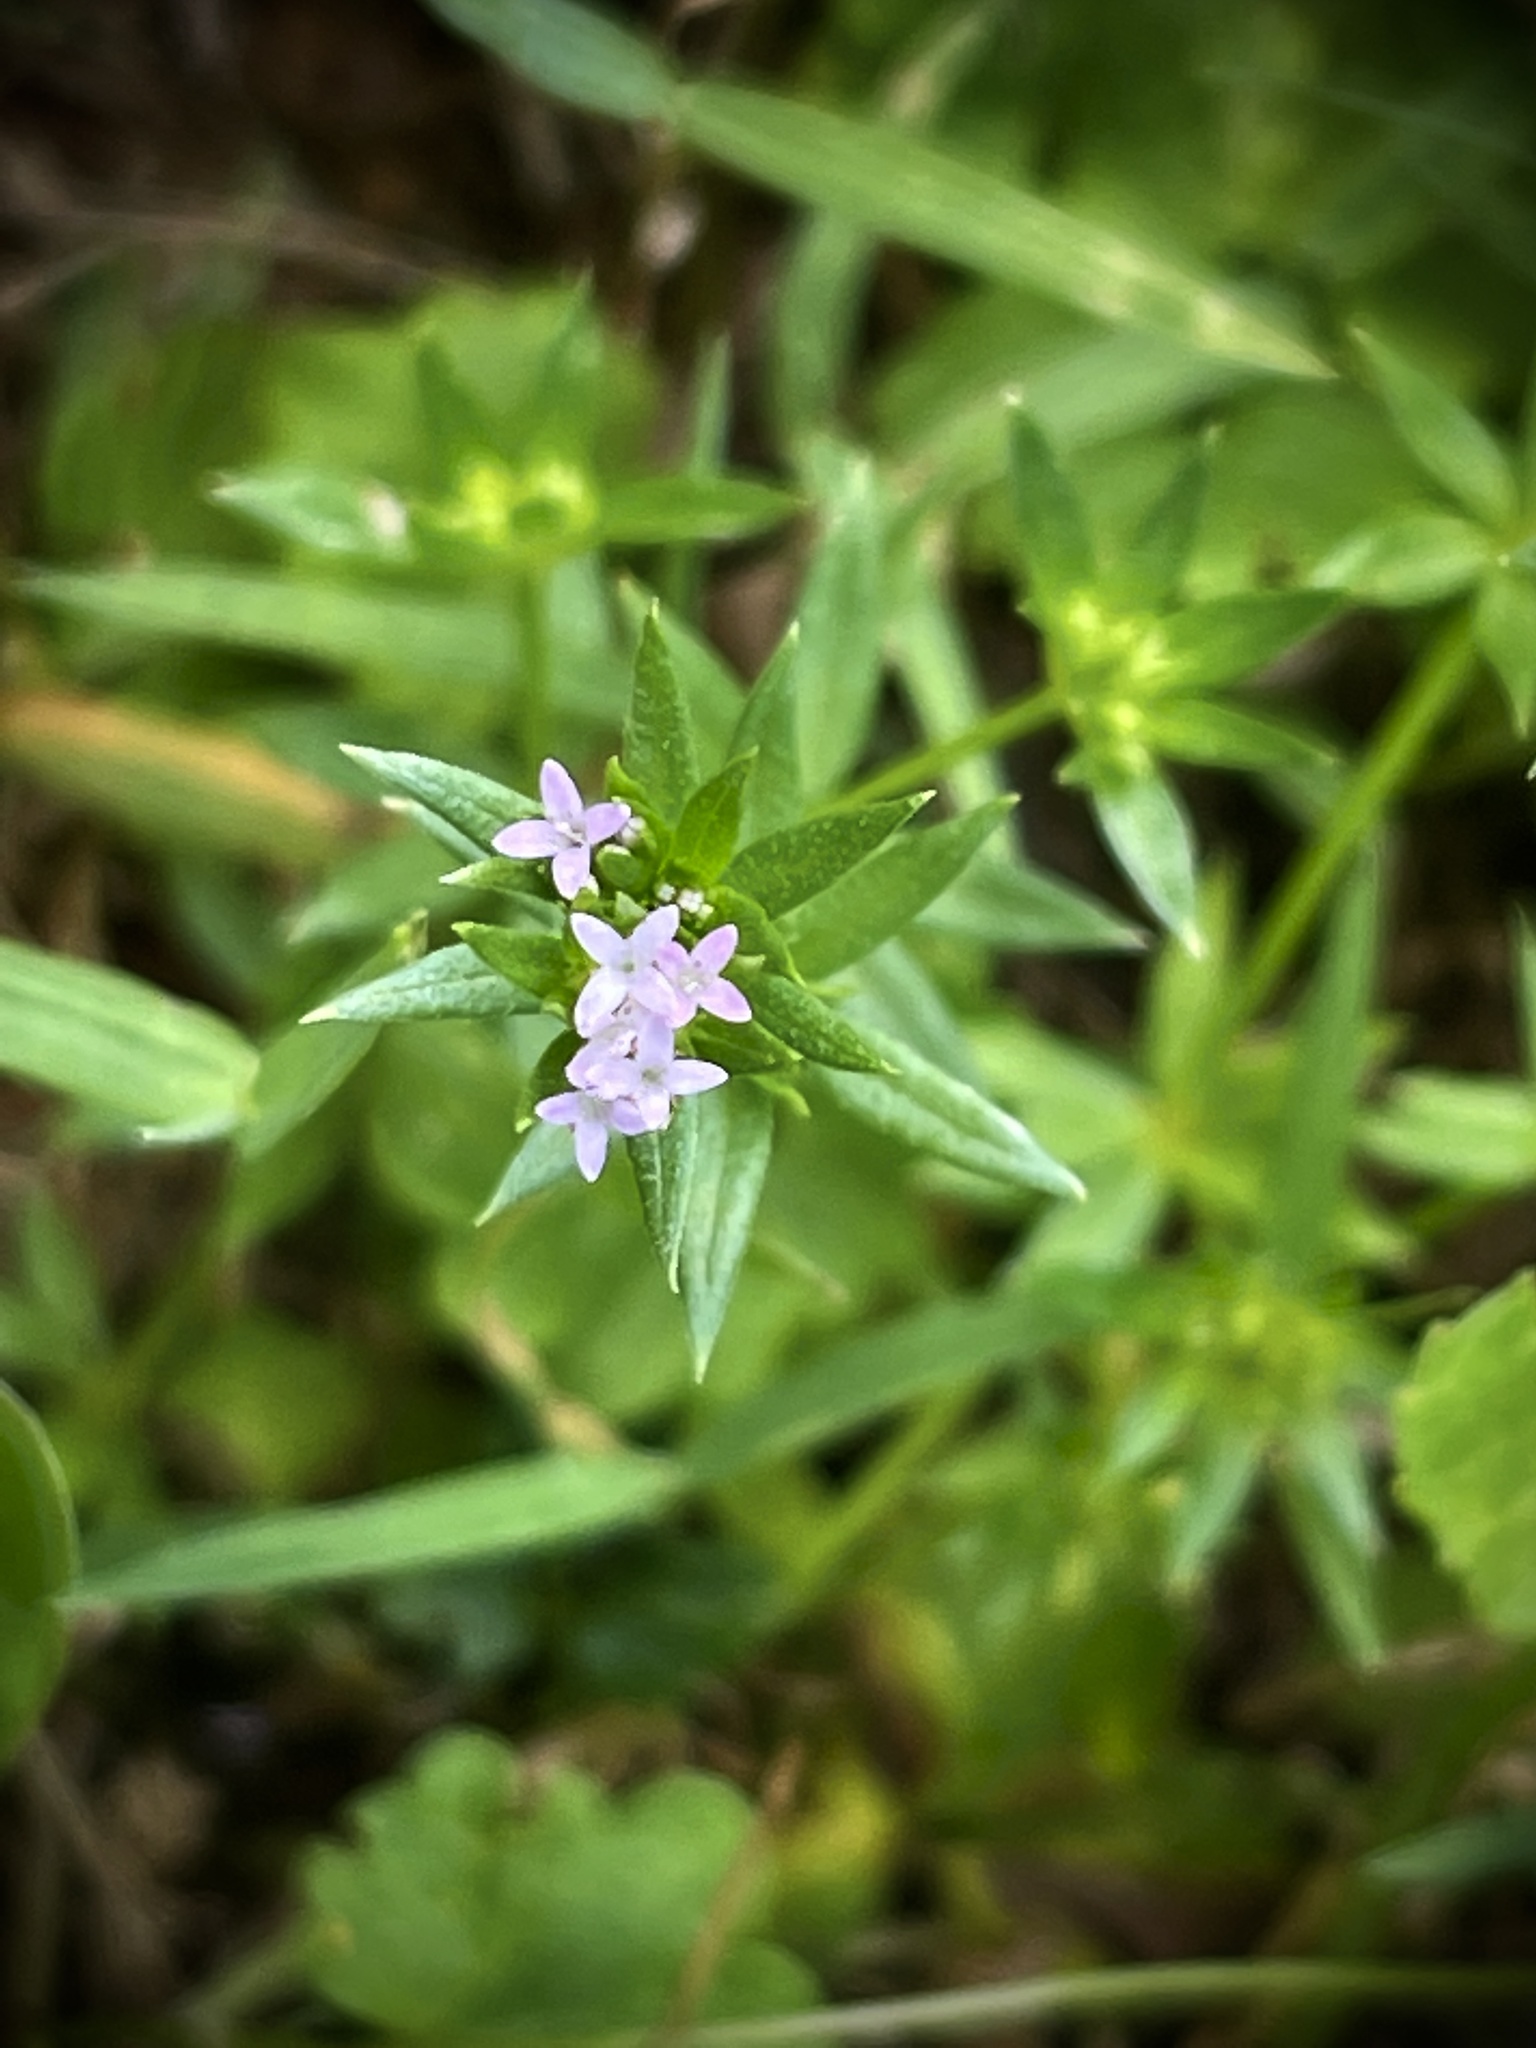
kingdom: Plantae
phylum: Tracheophyta
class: Magnoliopsida
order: Gentianales
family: Rubiaceae
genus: Sherardia
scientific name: Sherardia arvensis
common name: Field madder
